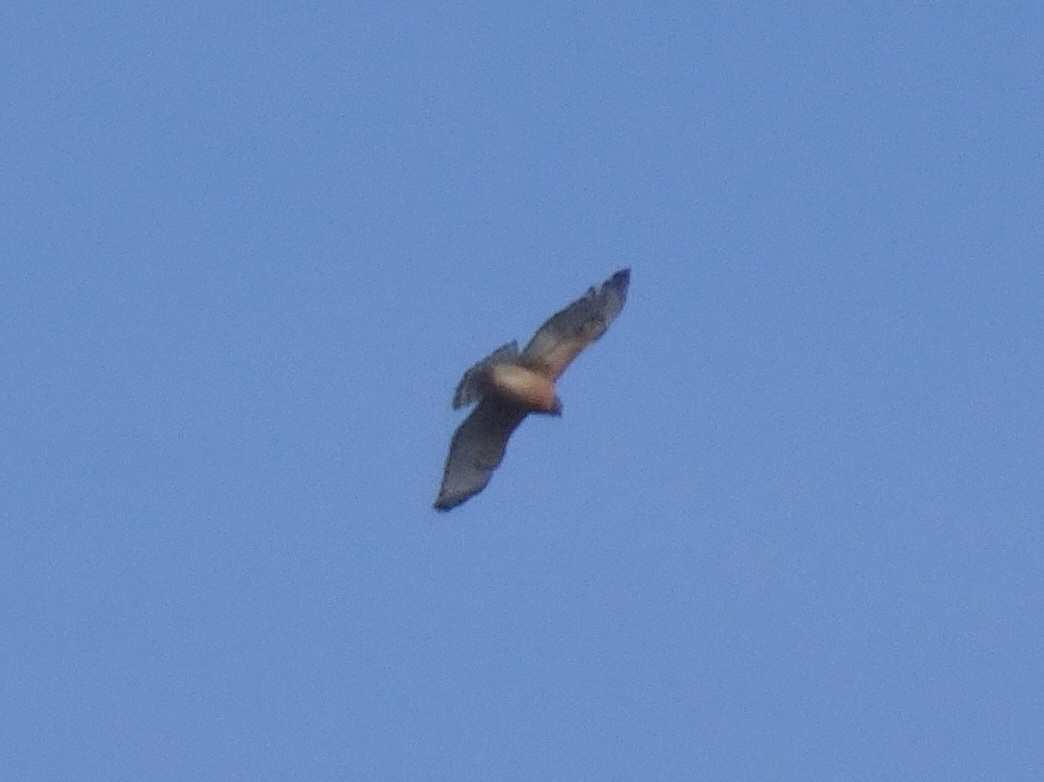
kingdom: Animalia
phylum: Chordata
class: Aves
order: Accipitriformes
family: Accipitridae
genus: Buteo
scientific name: Buteo lineatus
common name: Red-shouldered hawk
